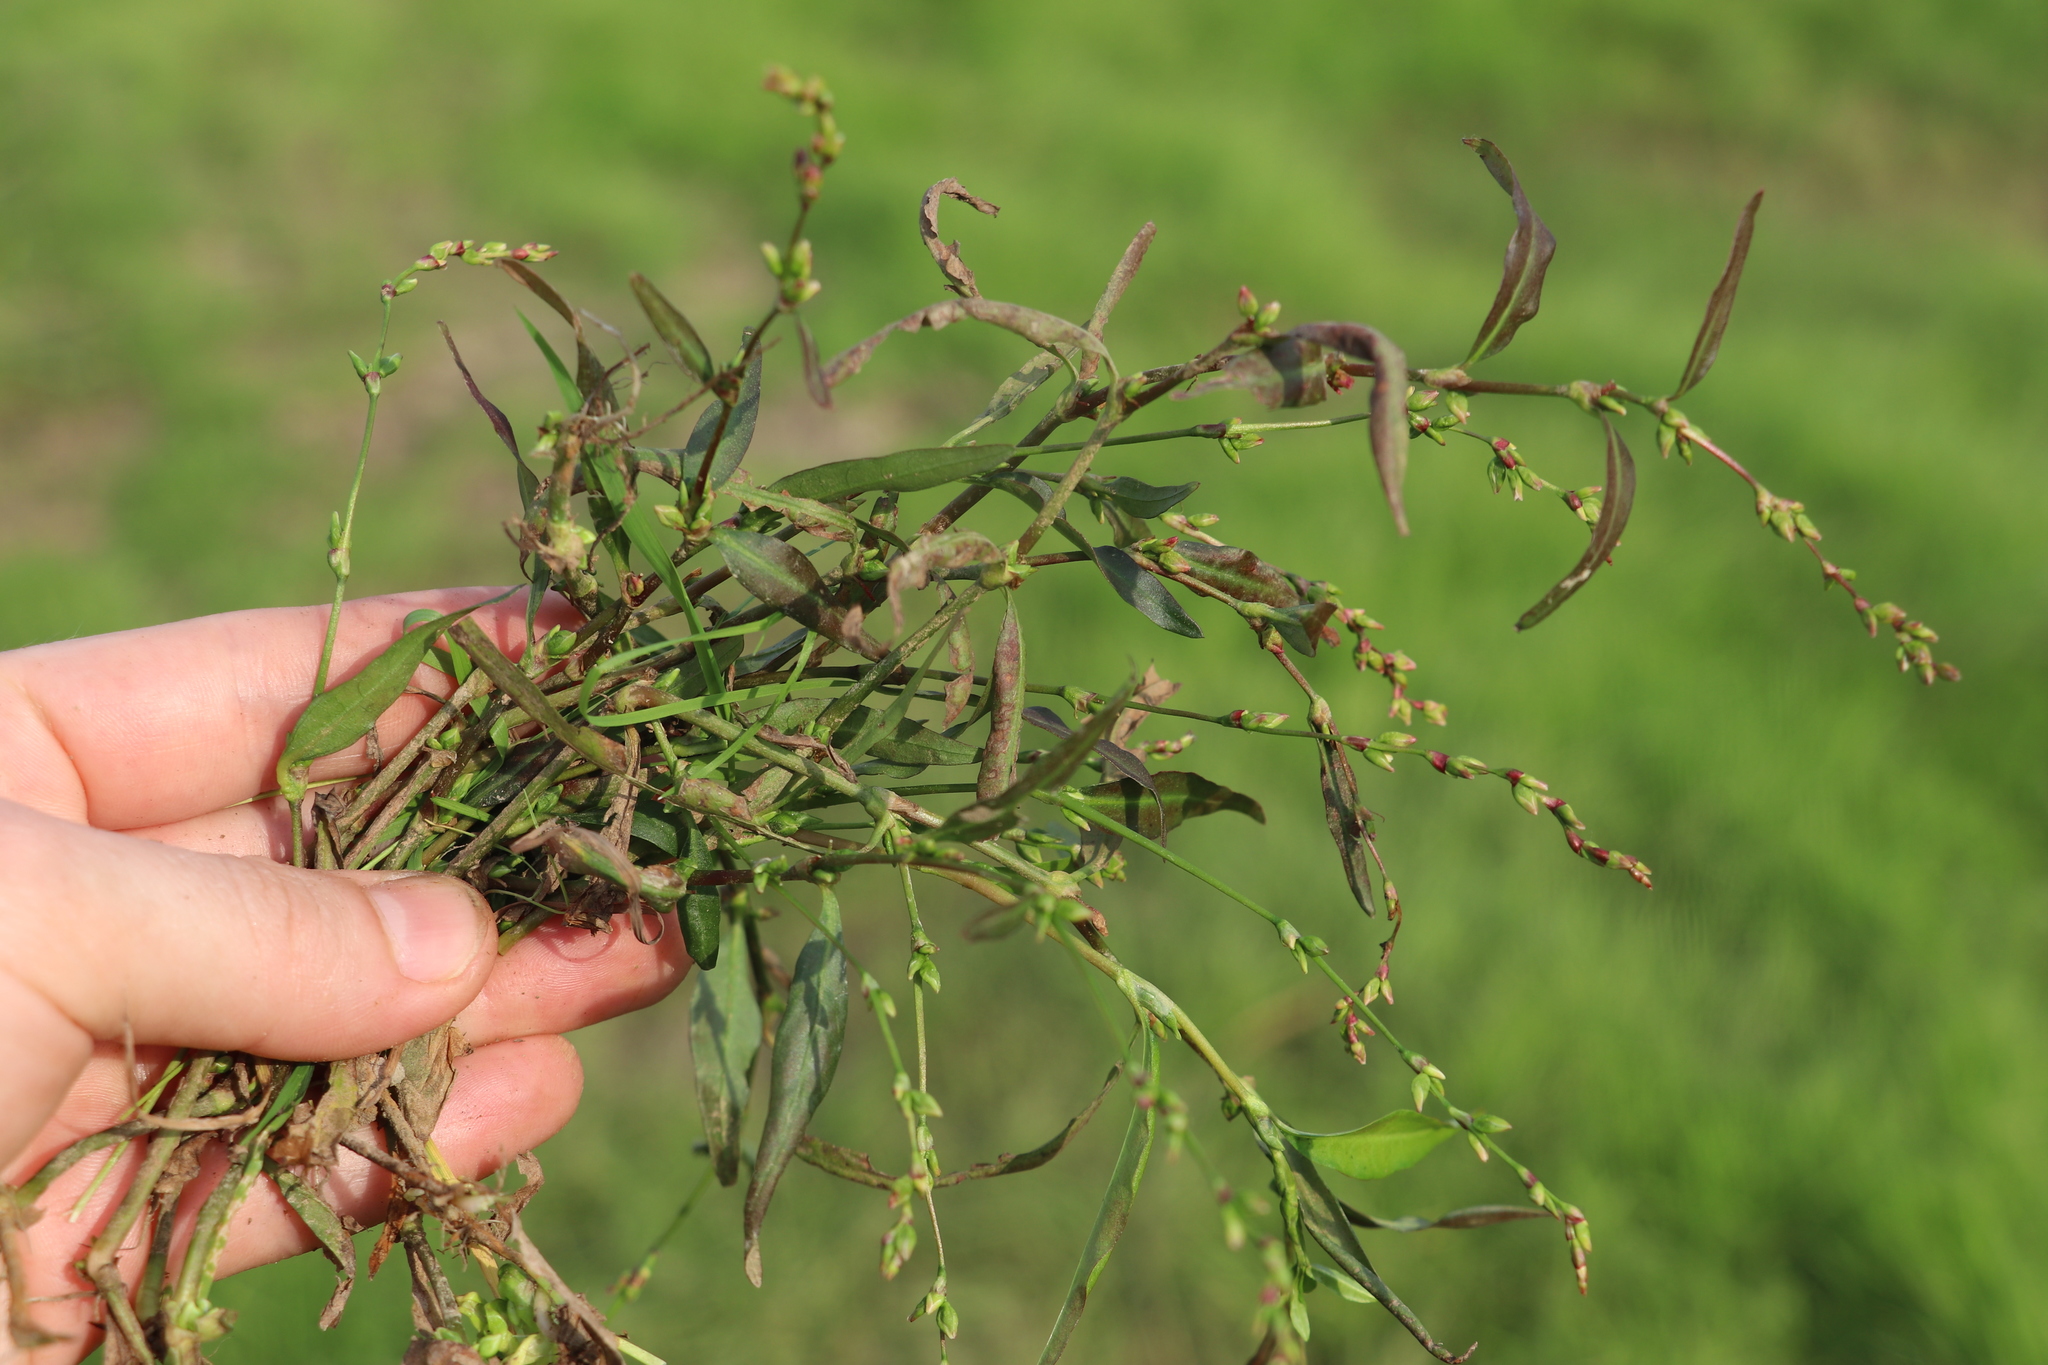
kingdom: Plantae
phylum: Tracheophyta
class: Magnoliopsida
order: Caryophyllales
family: Polygonaceae
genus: Persicaria
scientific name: Persicaria hydropiper
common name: Water-pepper
